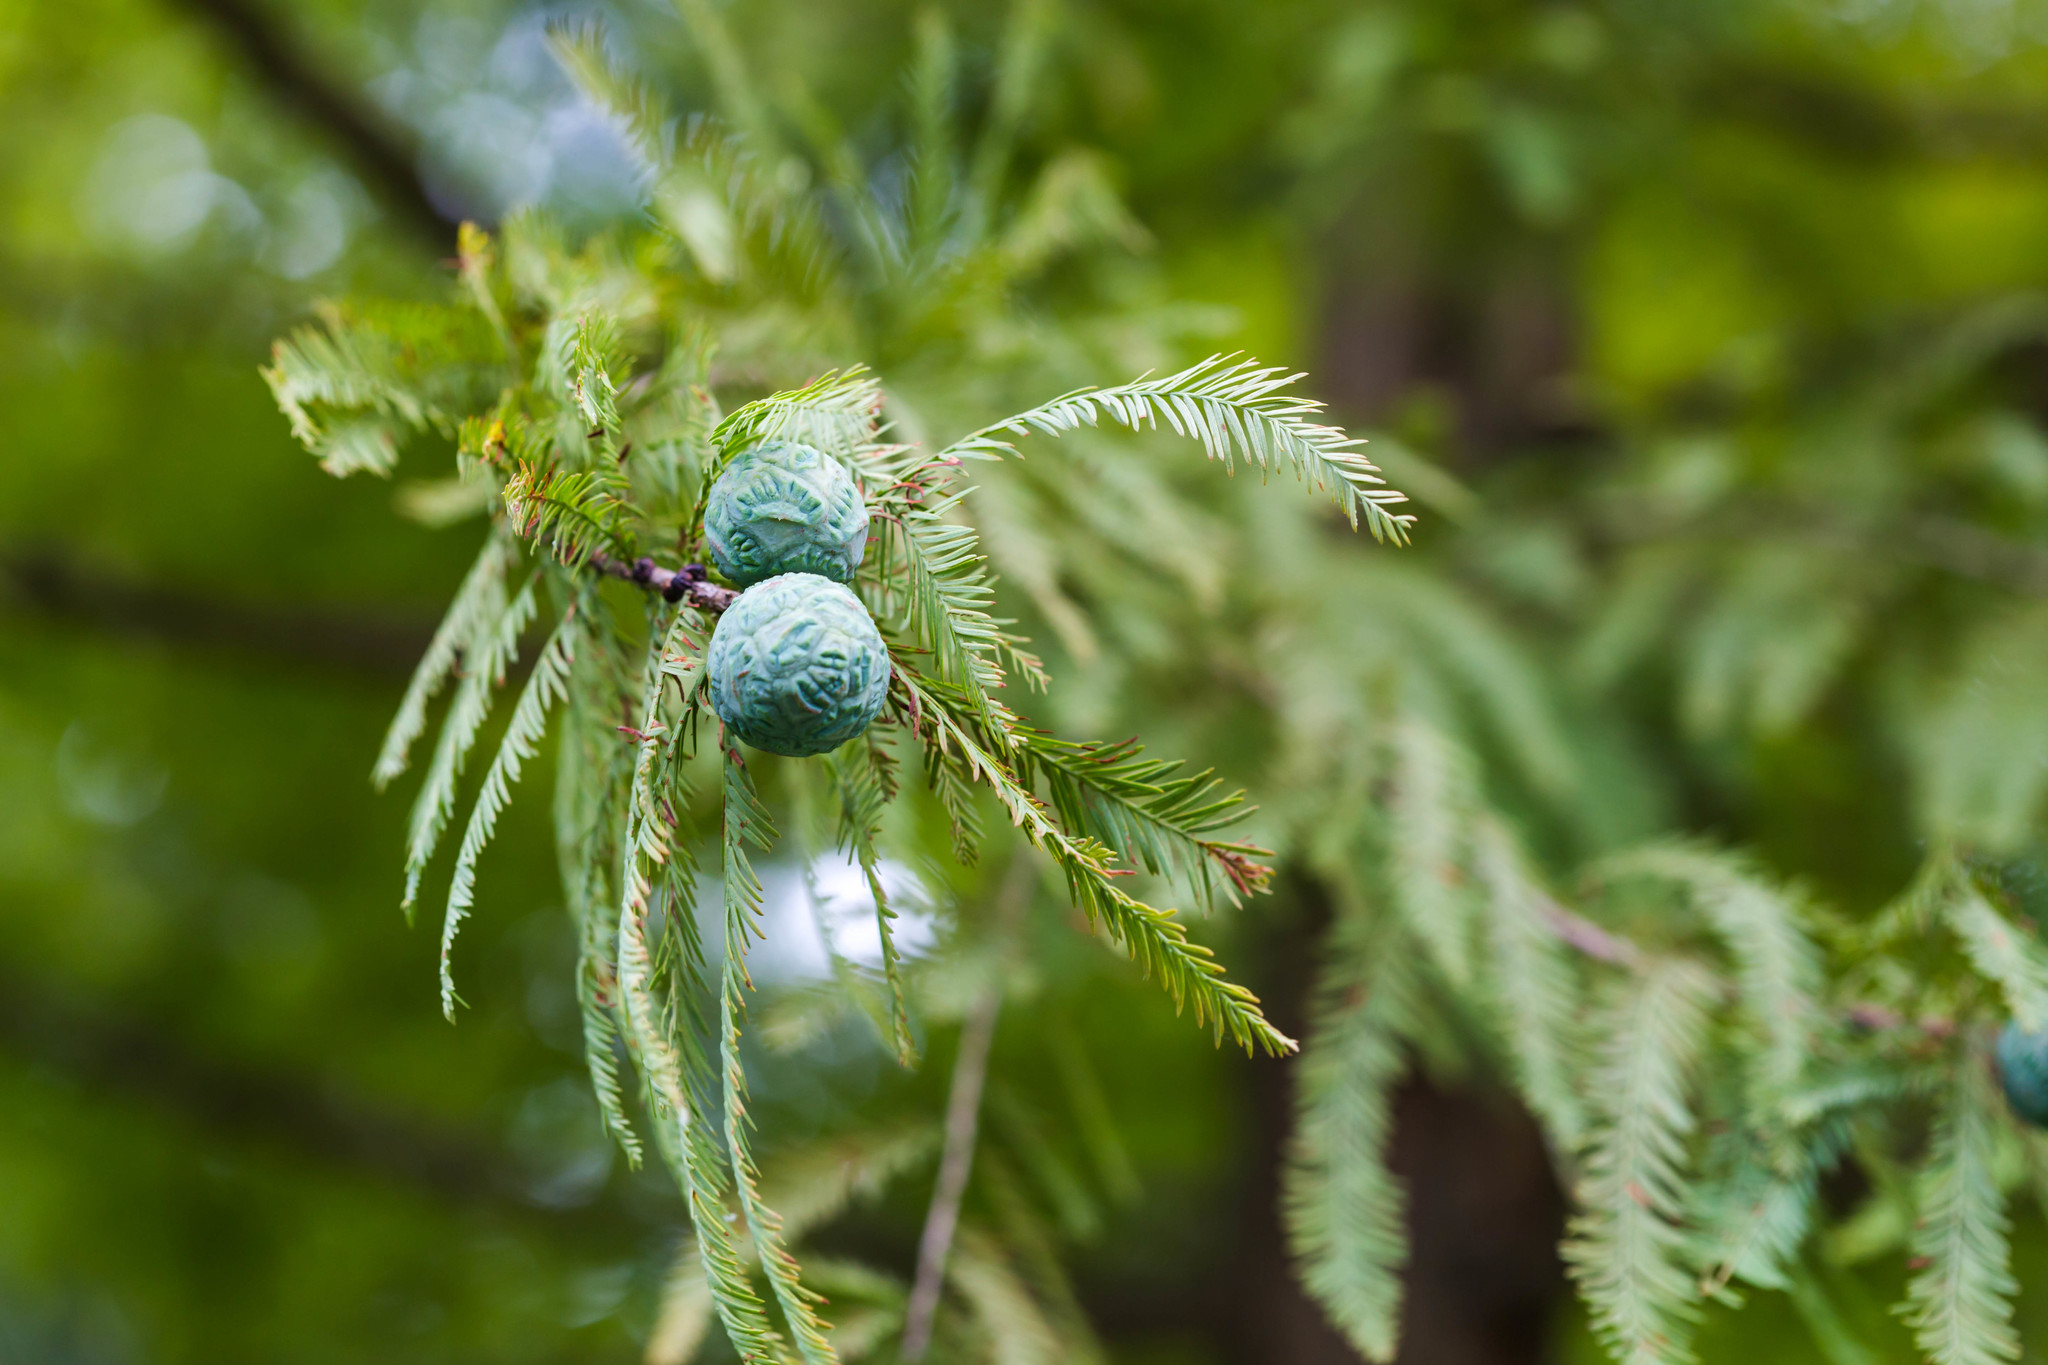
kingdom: Plantae
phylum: Tracheophyta
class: Pinopsida
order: Pinales
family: Cupressaceae
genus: Taxodium
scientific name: Taxodium distichum
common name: Bald cypress
